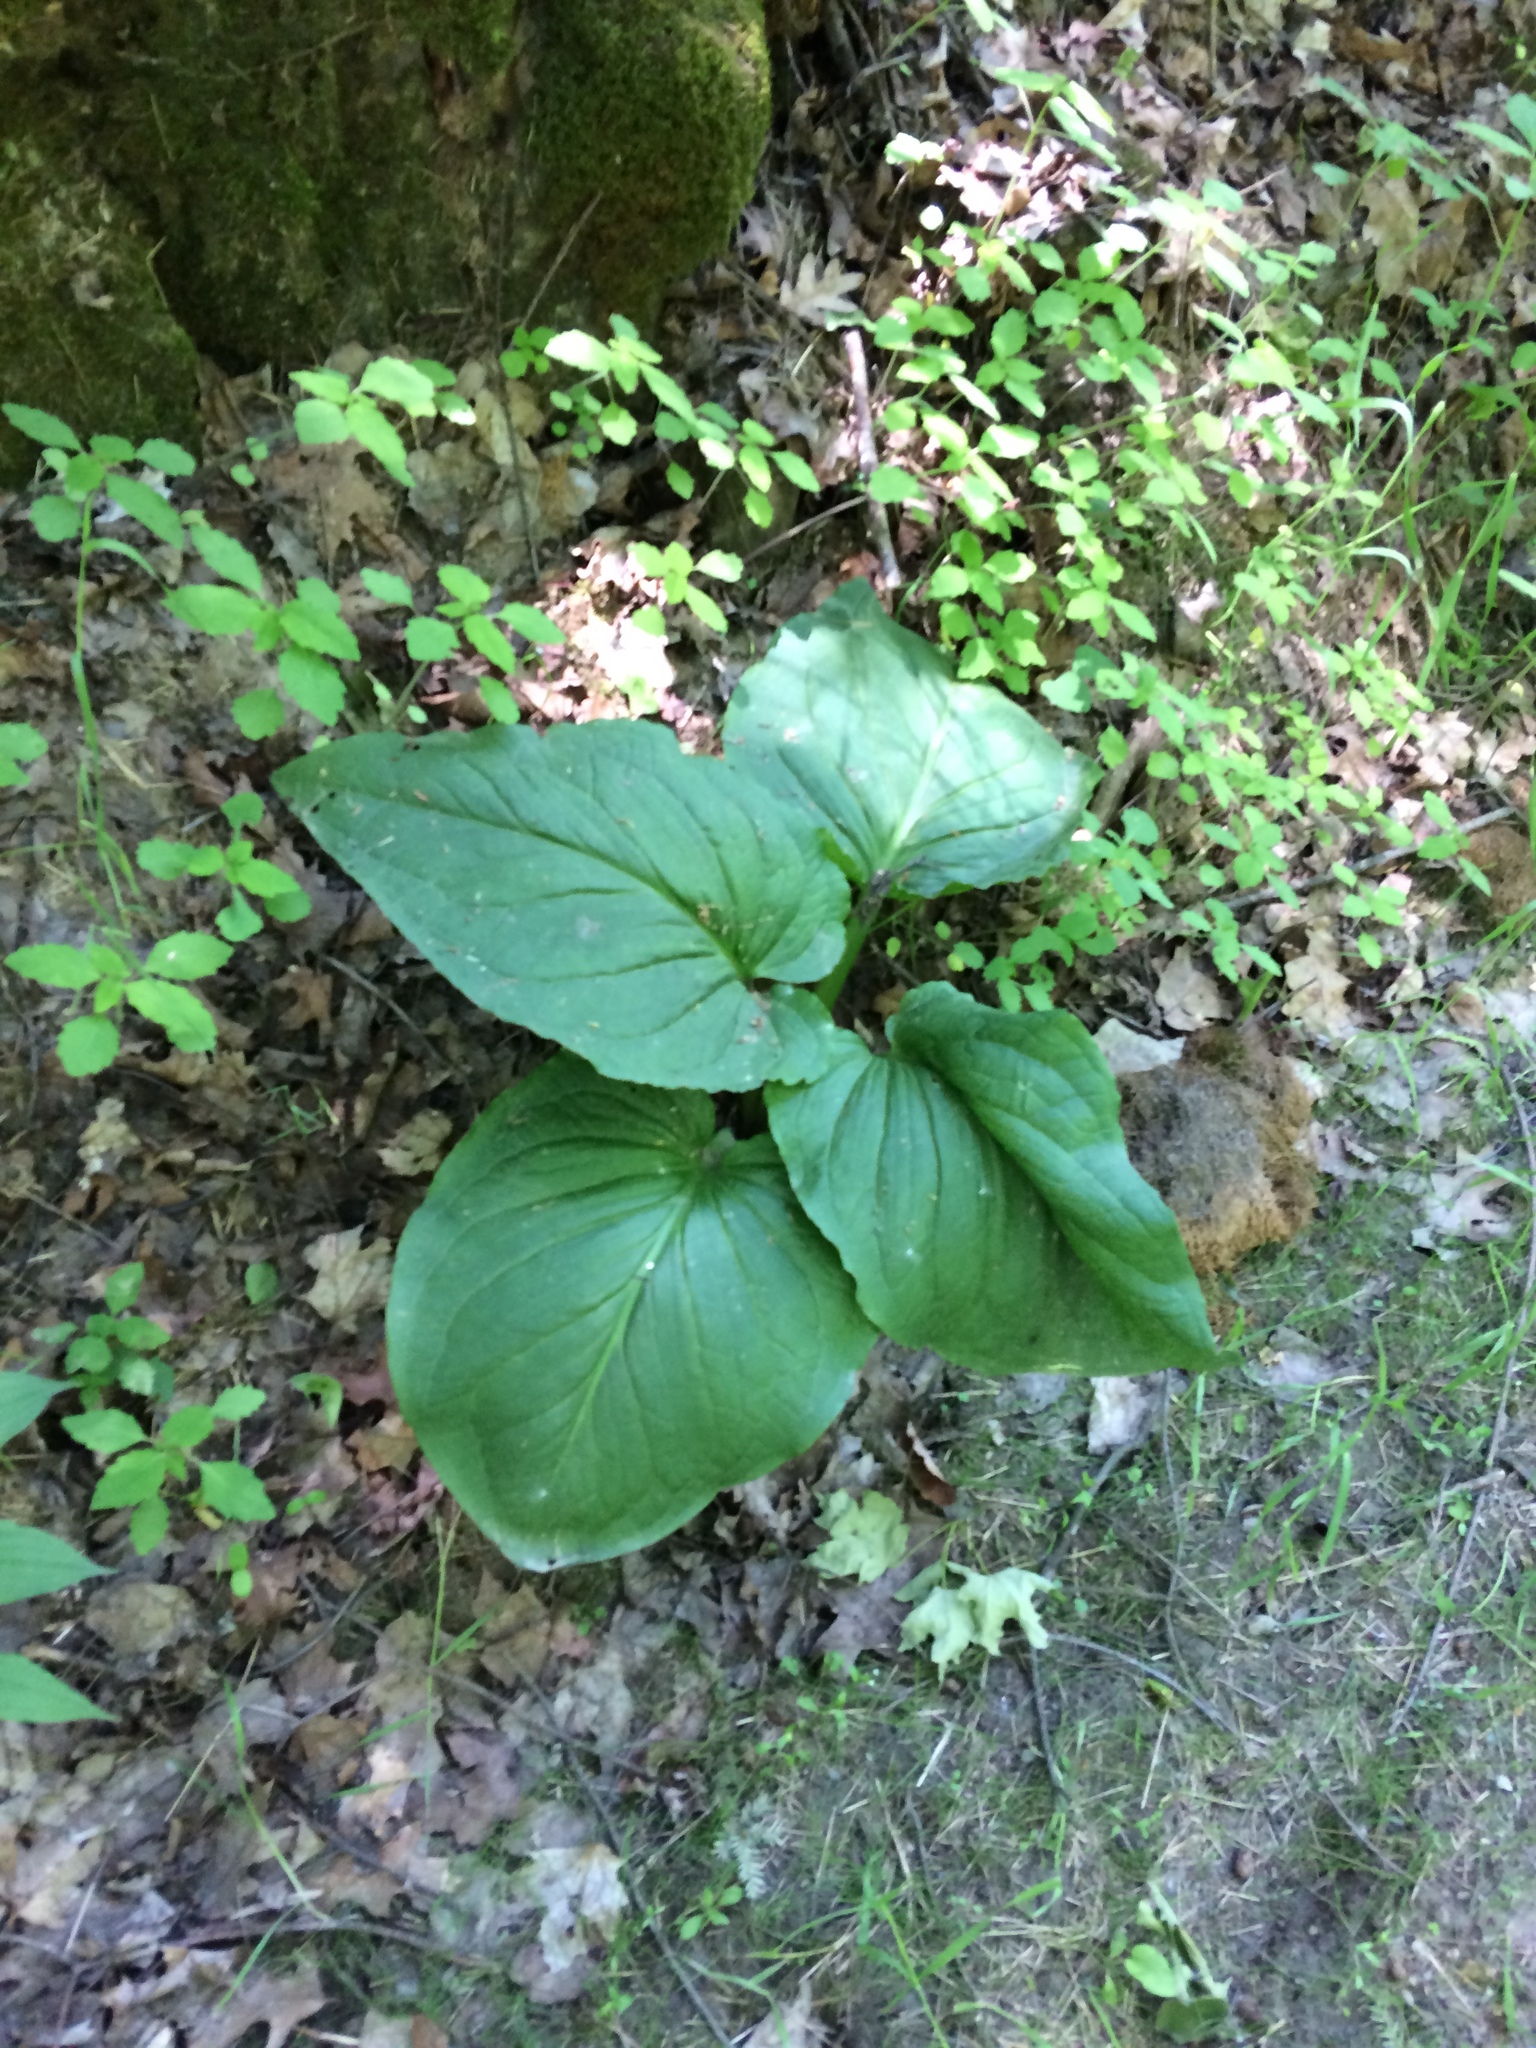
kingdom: Plantae
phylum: Tracheophyta
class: Liliopsida
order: Alismatales
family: Araceae
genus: Symplocarpus
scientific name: Symplocarpus foetidus
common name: Eastern skunk cabbage
